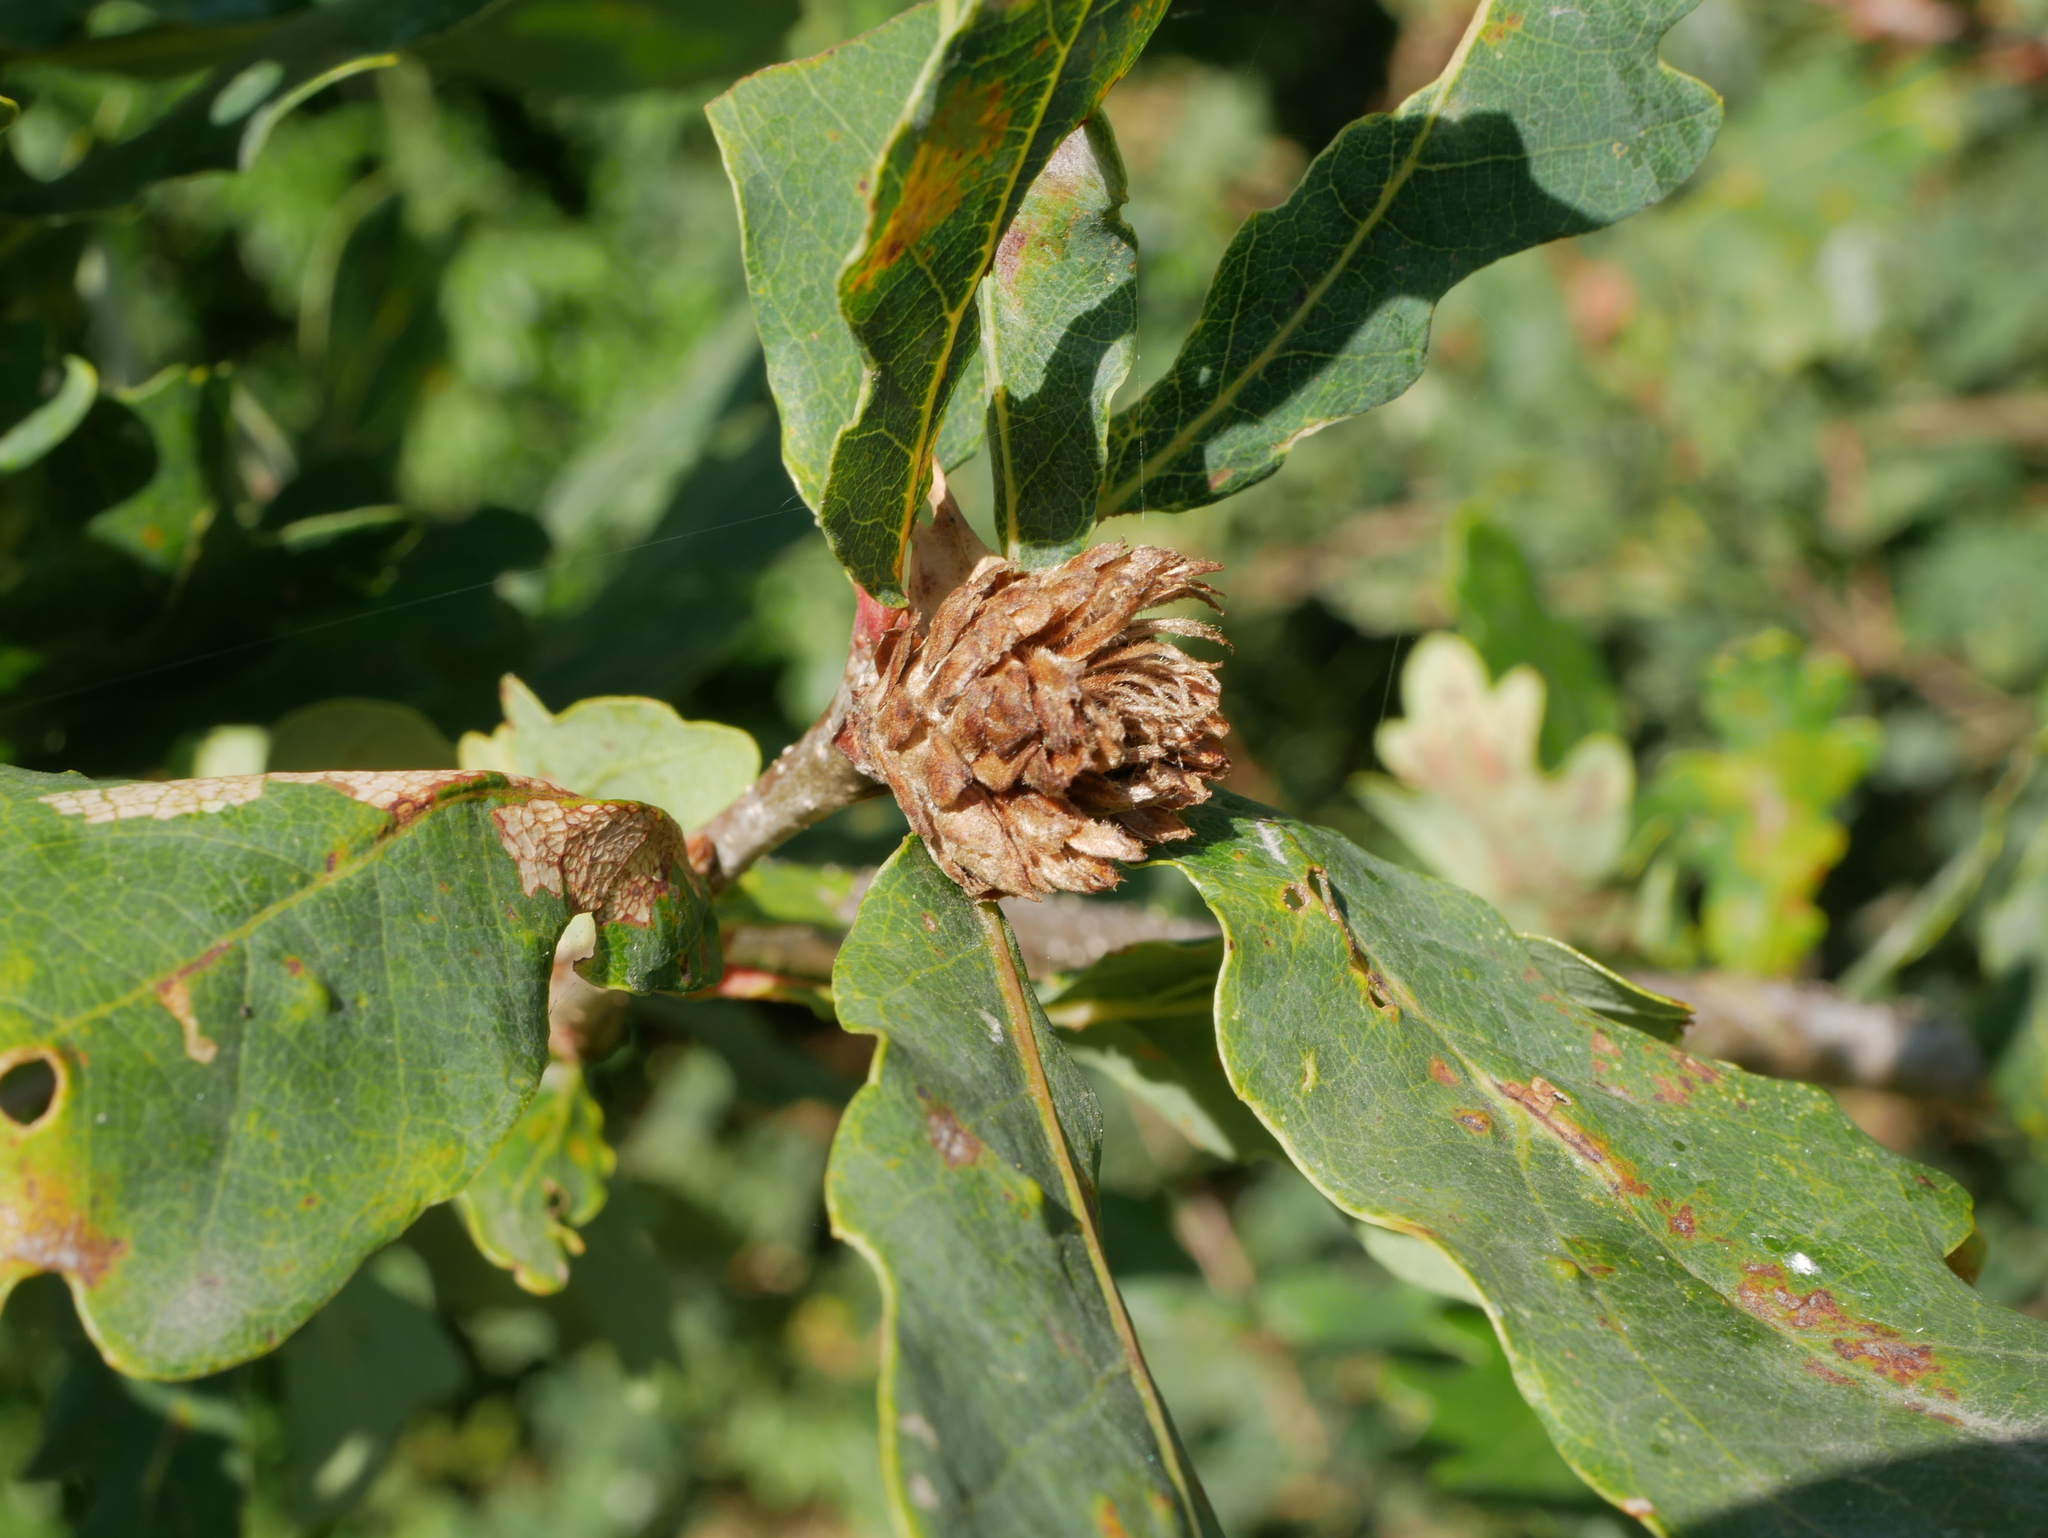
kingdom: Animalia
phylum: Arthropoda
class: Insecta
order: Hymenoptera
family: Cynipidae
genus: Andricus
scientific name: Andricus foecundatrix
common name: Artichoke gall
